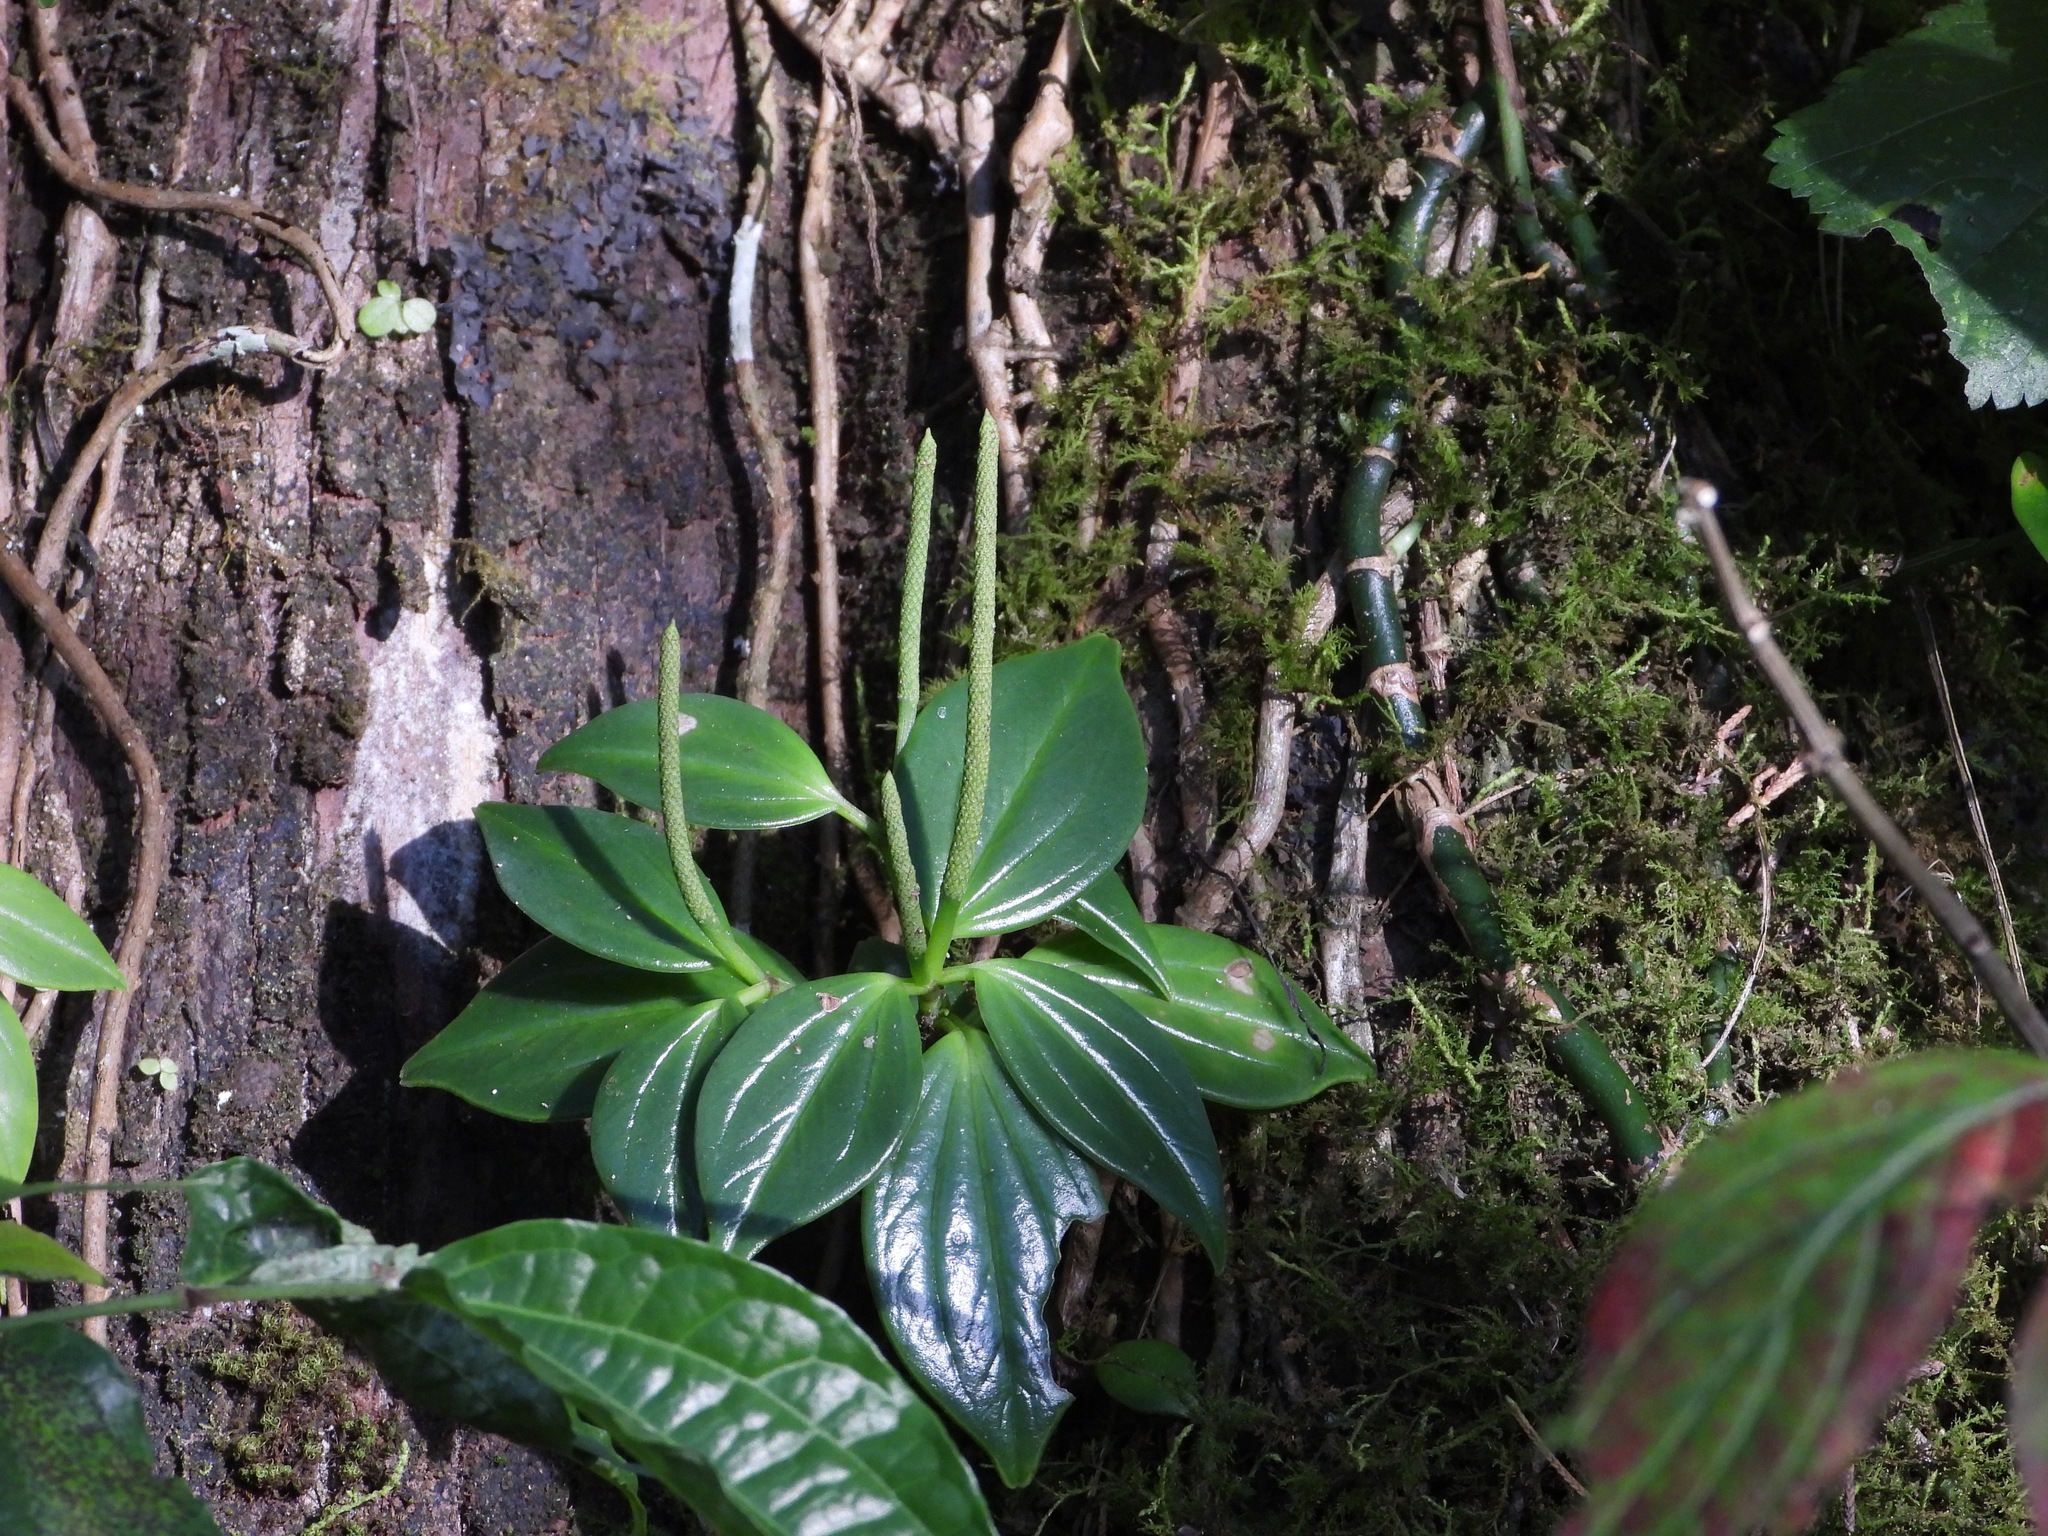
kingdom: Plantae
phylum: Tracheophyta
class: Magnoliopsida
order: Piperales
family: Piperaceae
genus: Peperomia
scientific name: Peperomia san-joseana
